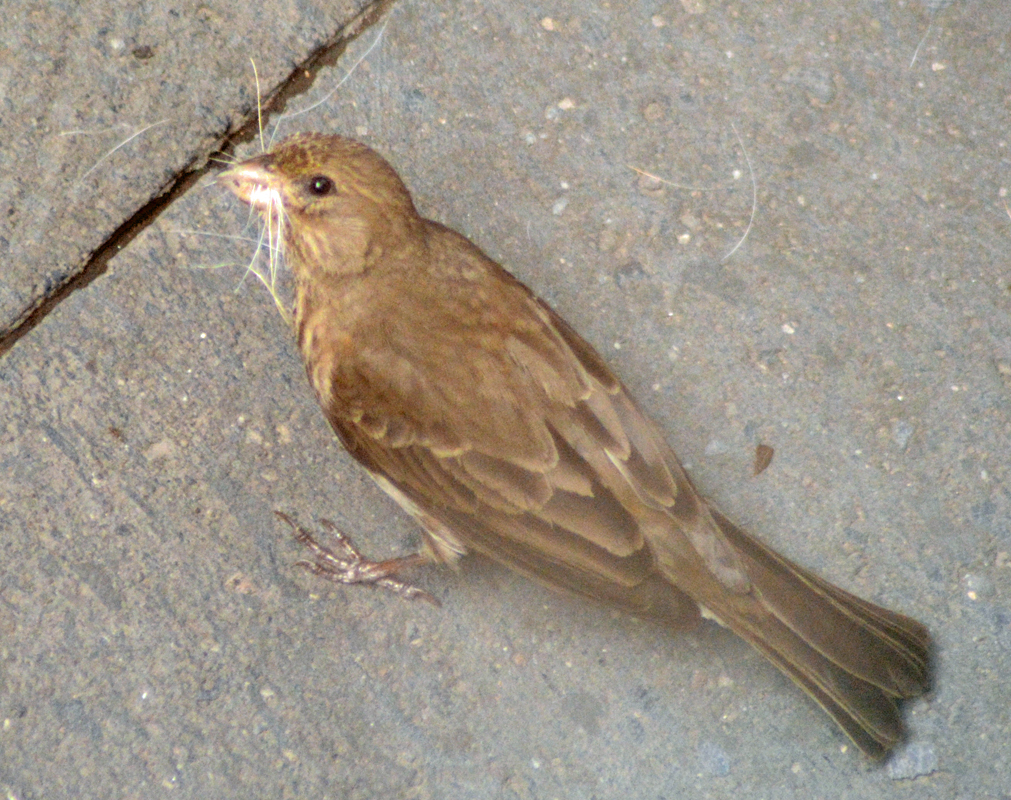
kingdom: Animalia
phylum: Chordata
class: Aves
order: Passeriformes
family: Fringillidae
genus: Haemorhous
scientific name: Haemorhous mexicanus
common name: House finch
